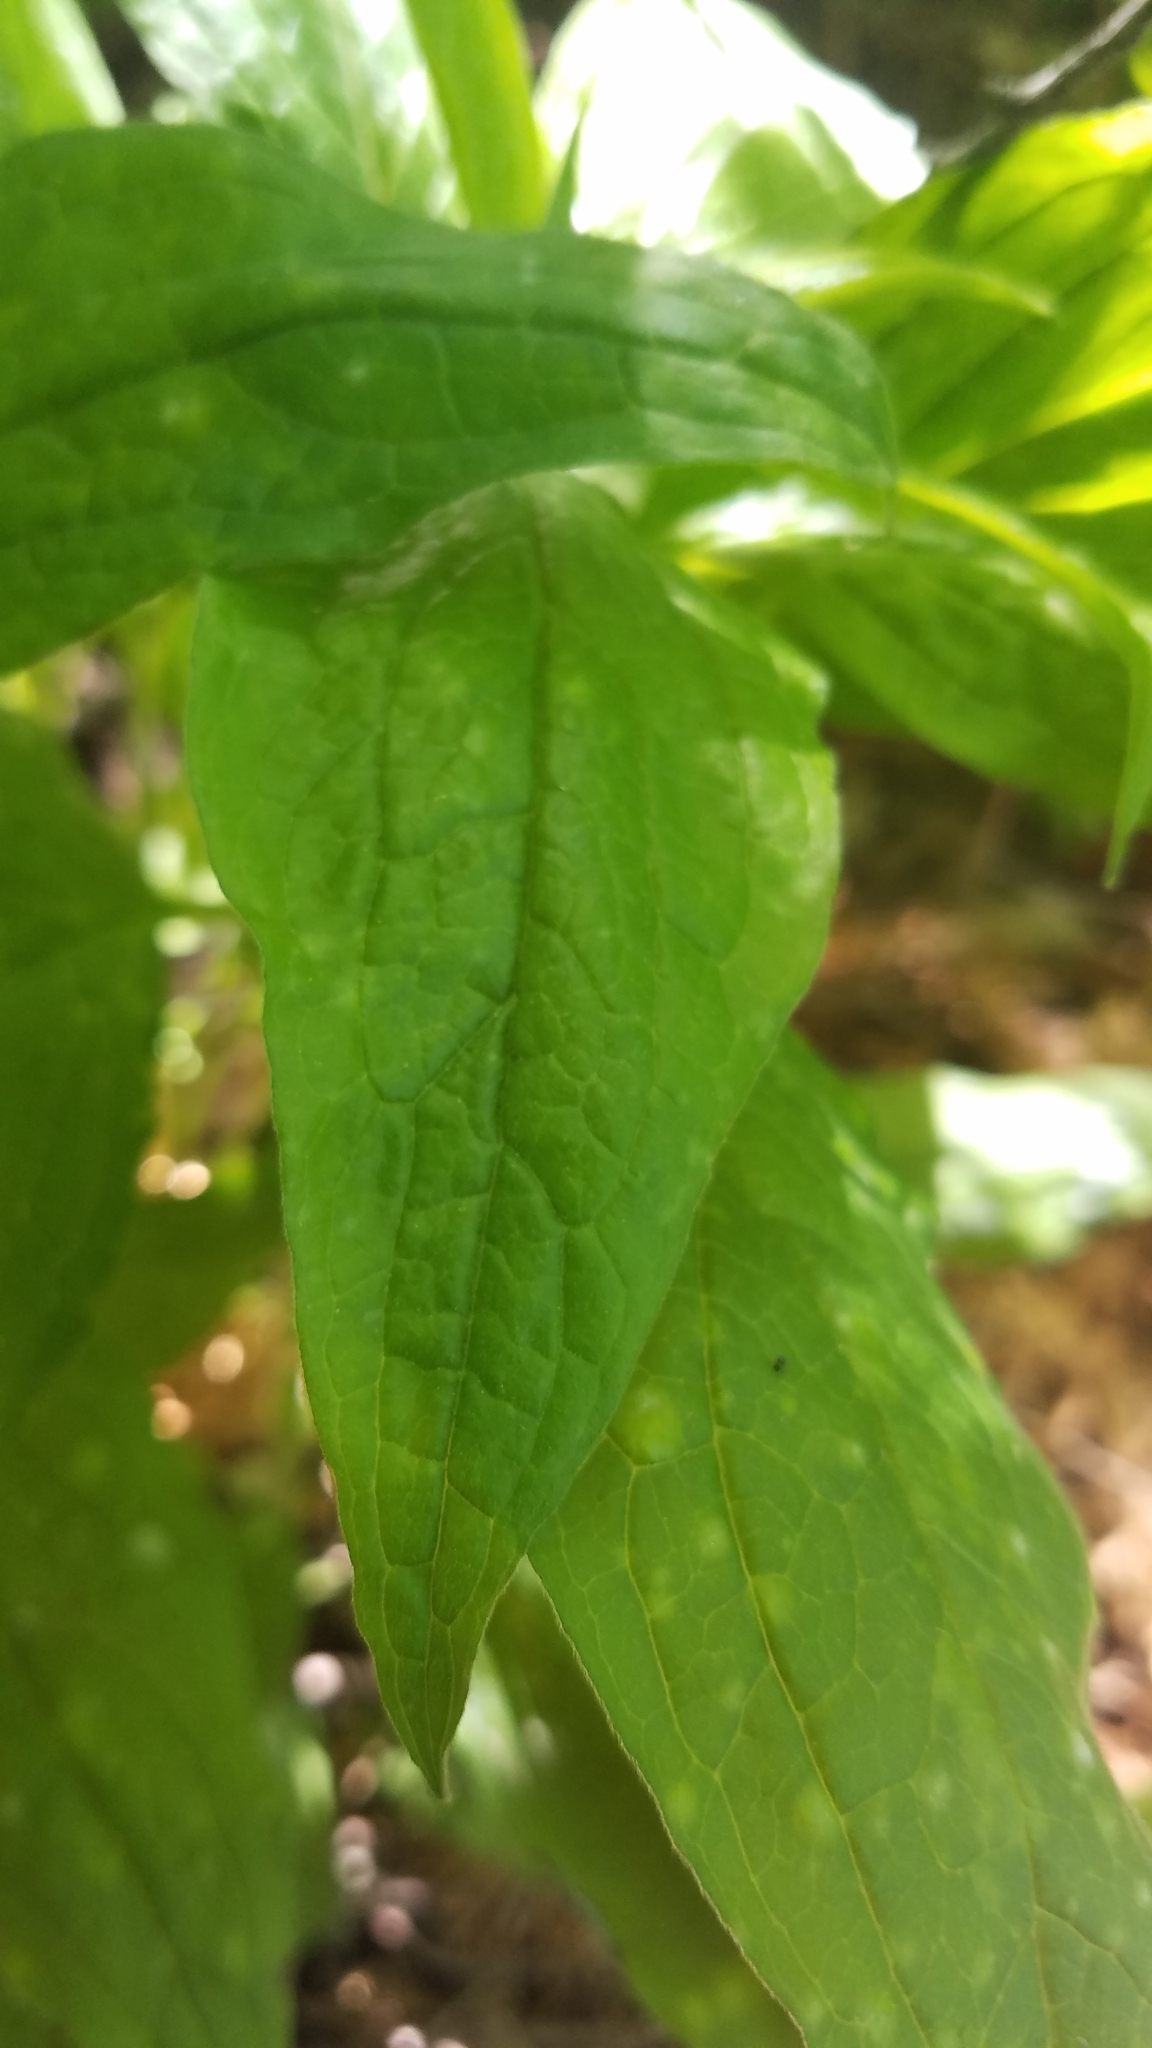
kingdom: Plantae
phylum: Tracheophyta
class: Magnoliopsida
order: Boraginales
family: Boraginaceae
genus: Hackelia
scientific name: Hackelia virginiana
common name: Beggar's-lice
